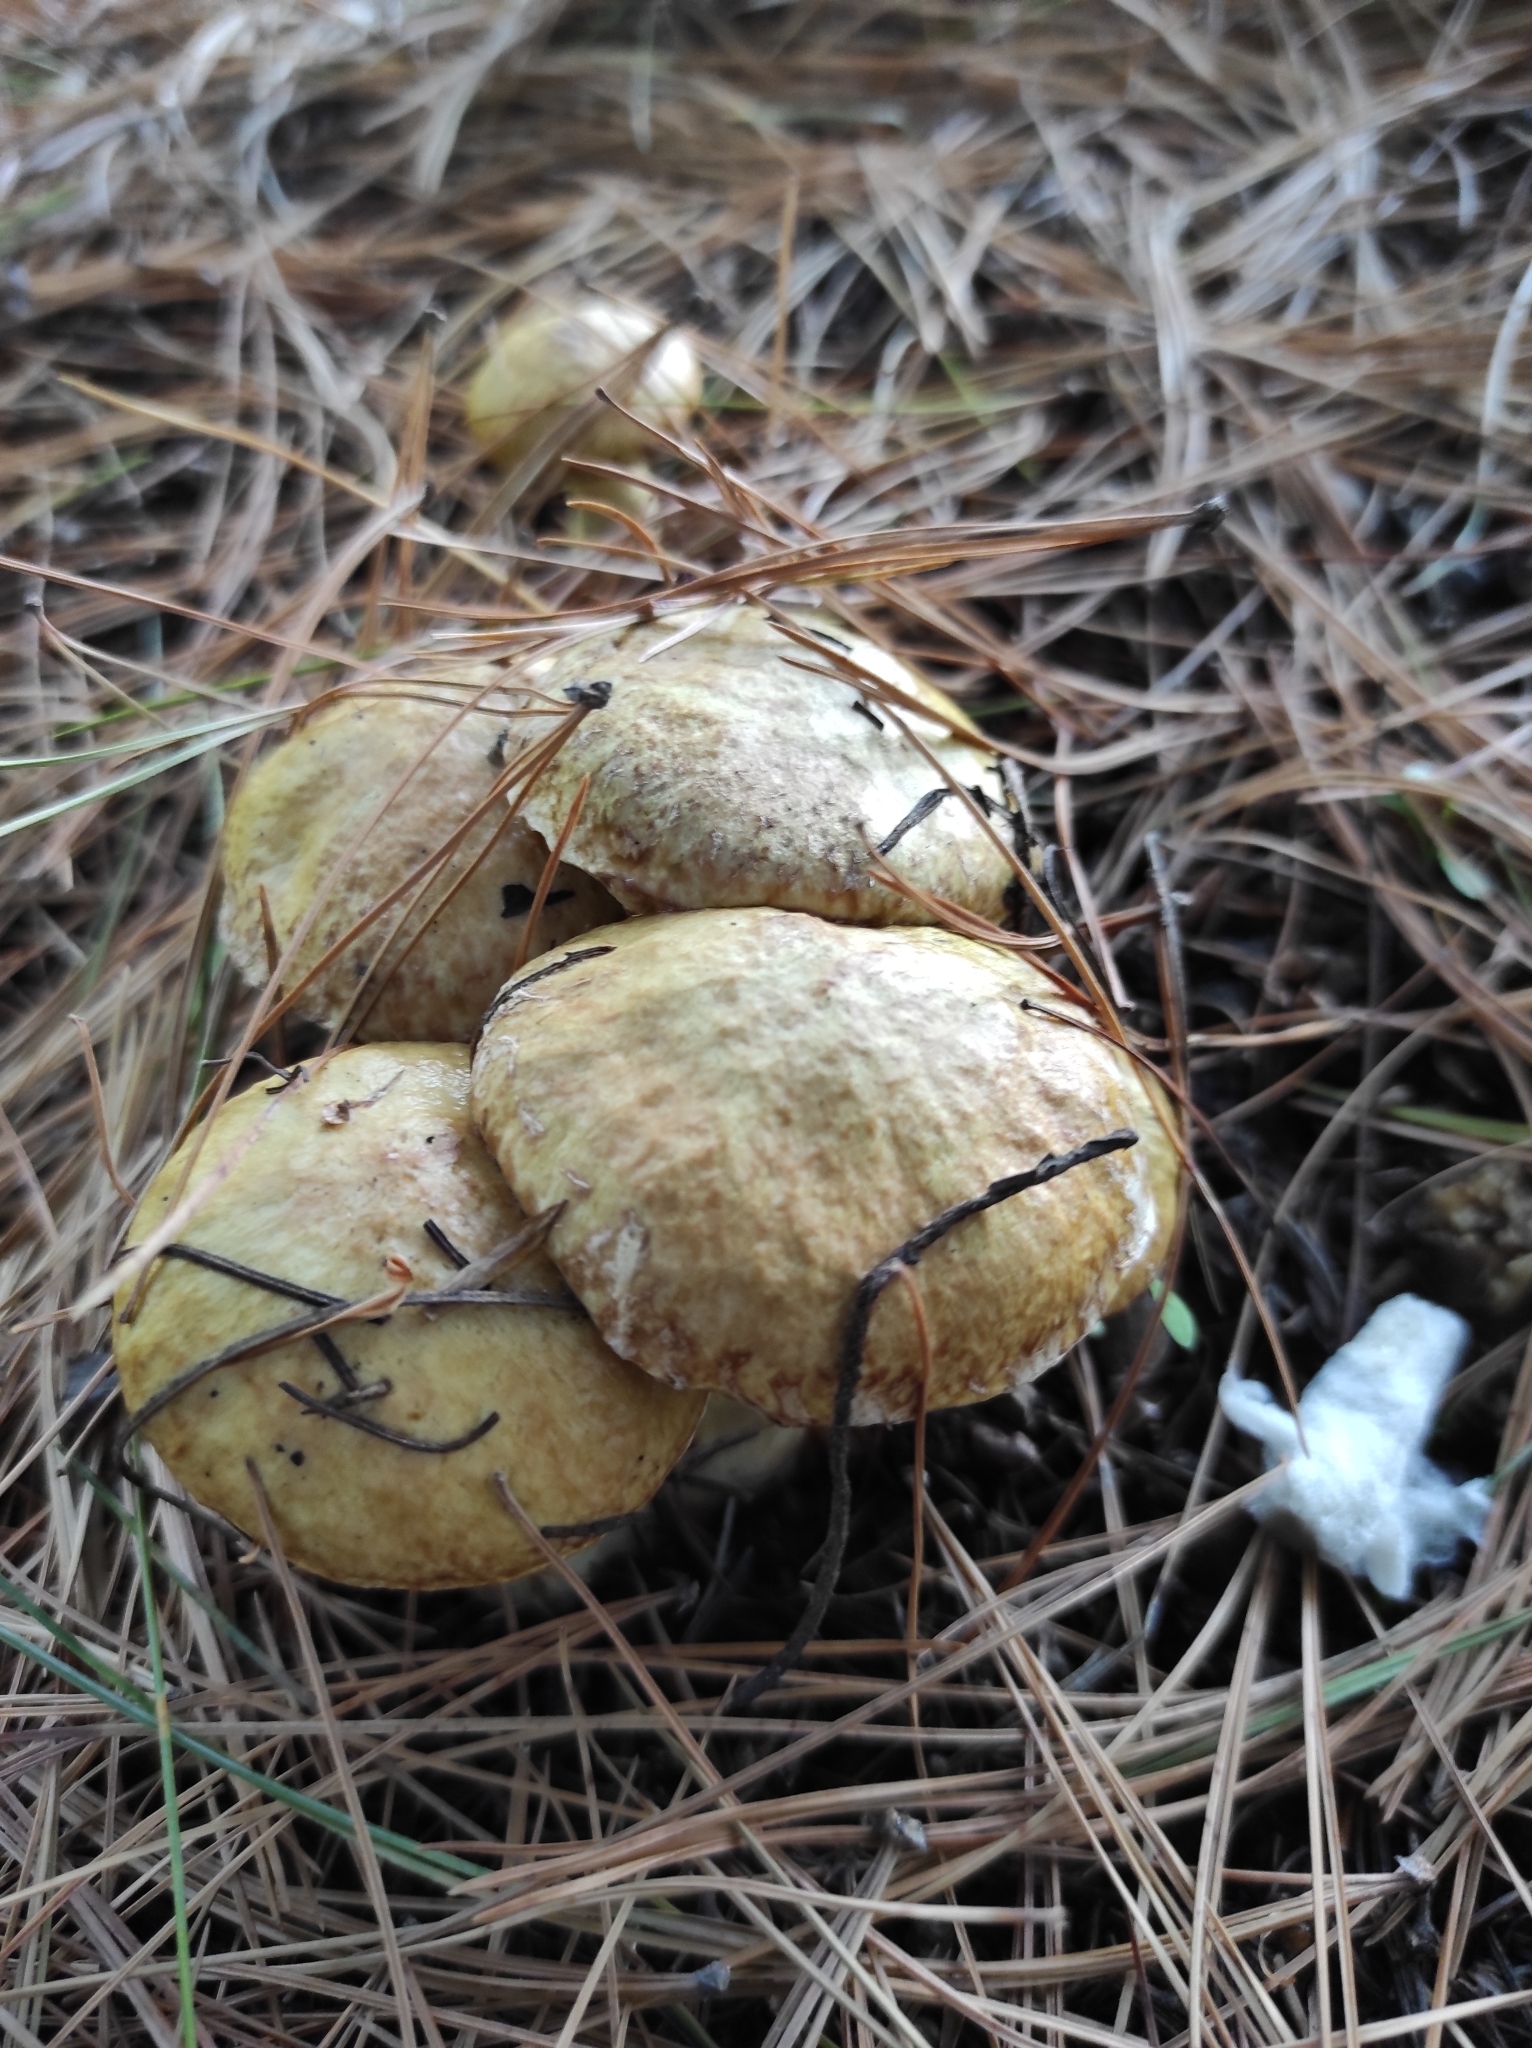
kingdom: Fungi
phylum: Basidiomycota
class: Agaricomycetes
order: Boletales
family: Suillaceae
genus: Suillus
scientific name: Suillus americanus
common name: Chicken fat mushroom
